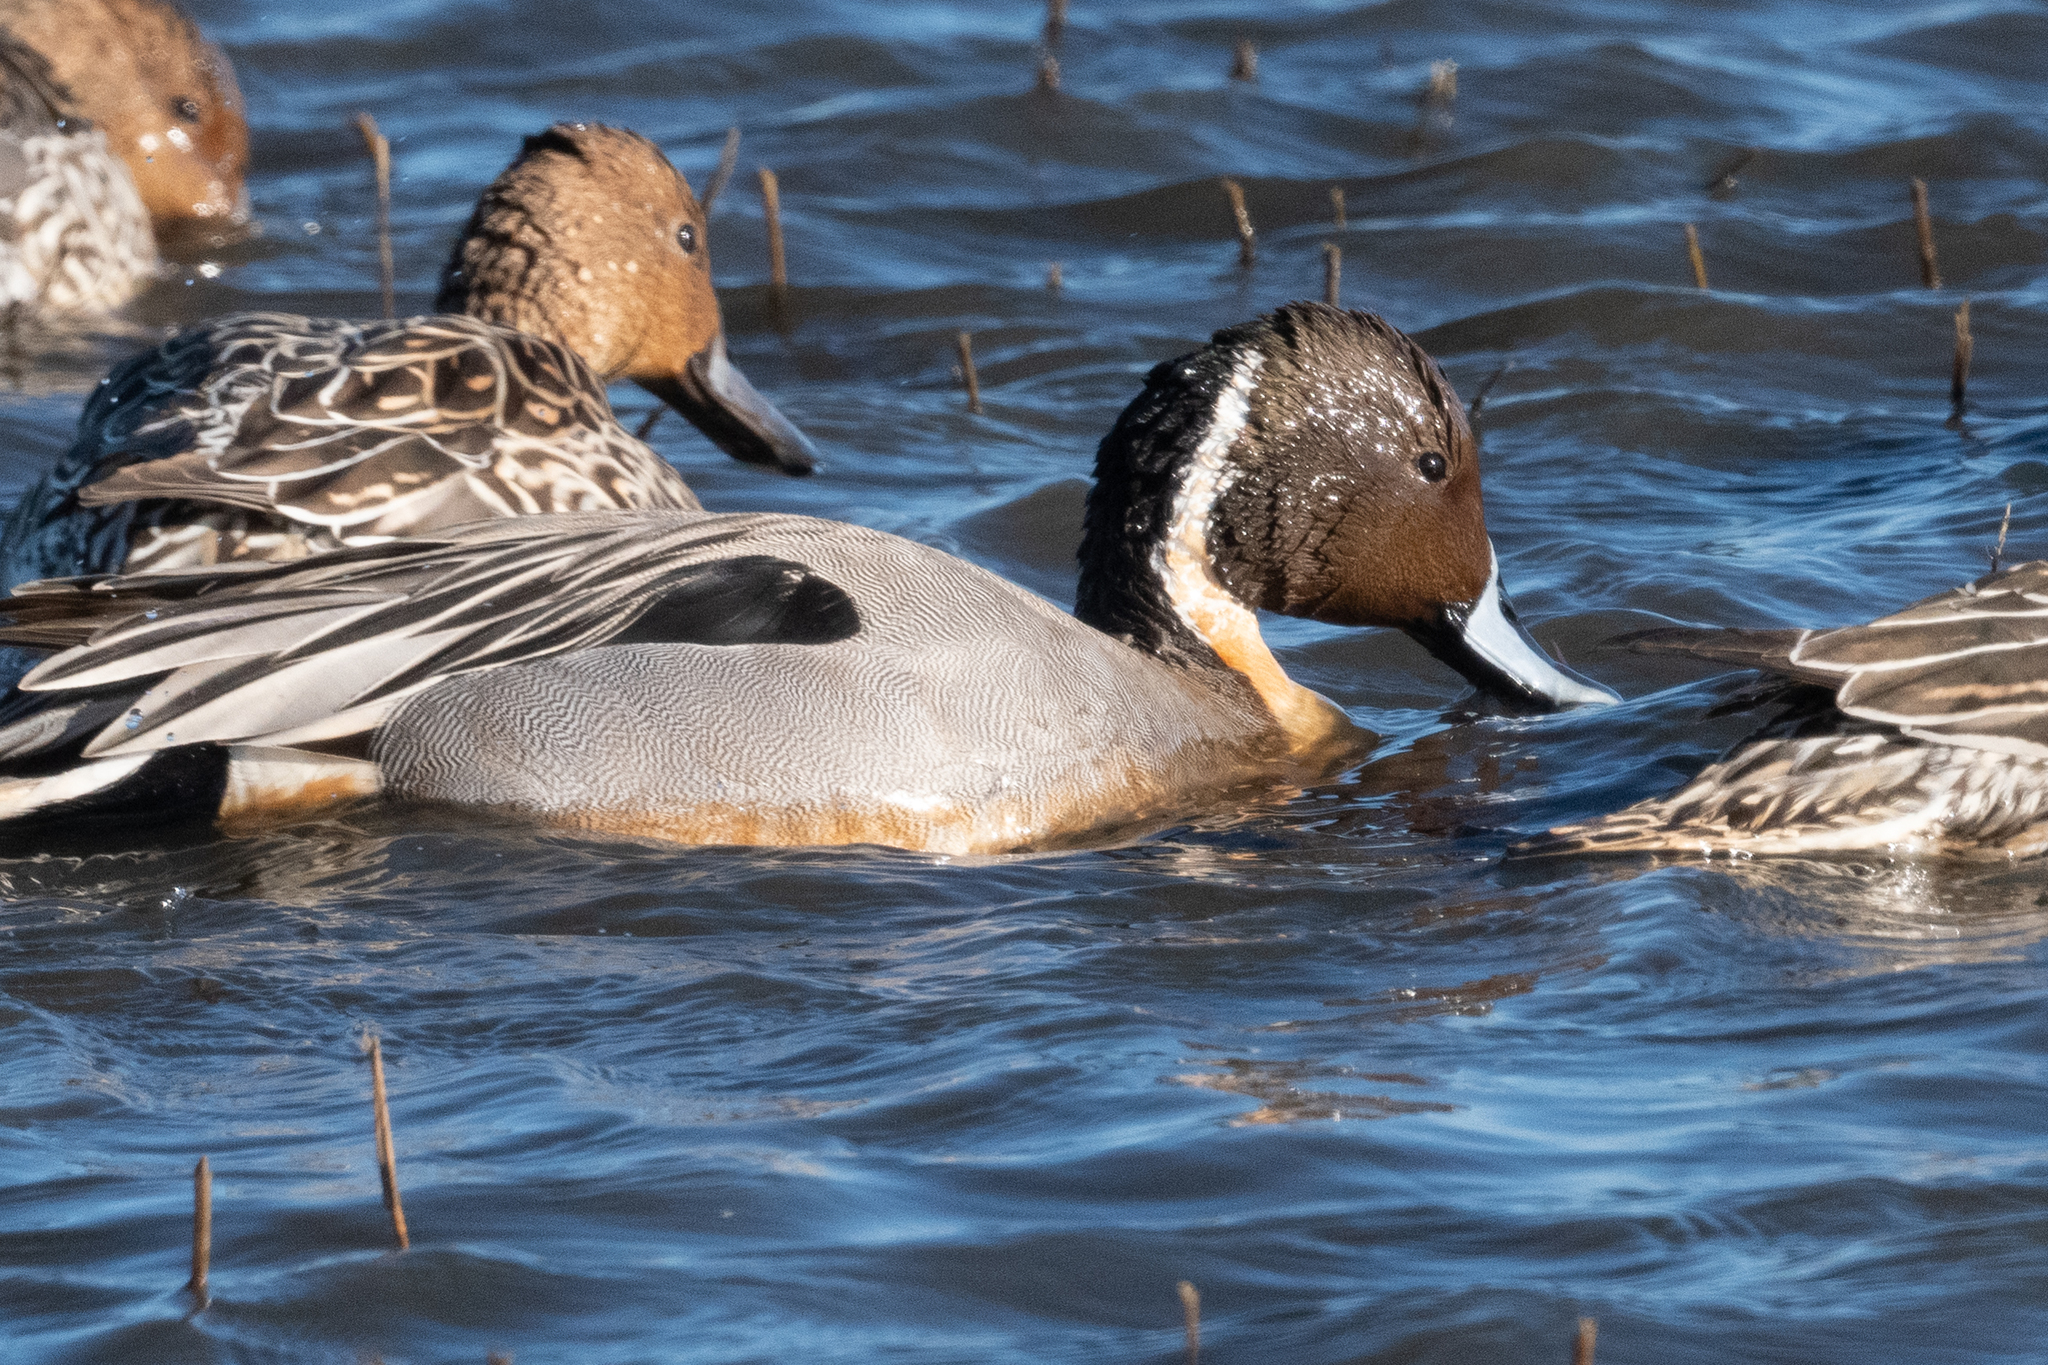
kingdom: Animalia
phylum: Chordata
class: Aves
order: Anseriformes
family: Anatidae
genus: Anas
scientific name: Anas acuta
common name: Northern pintail
